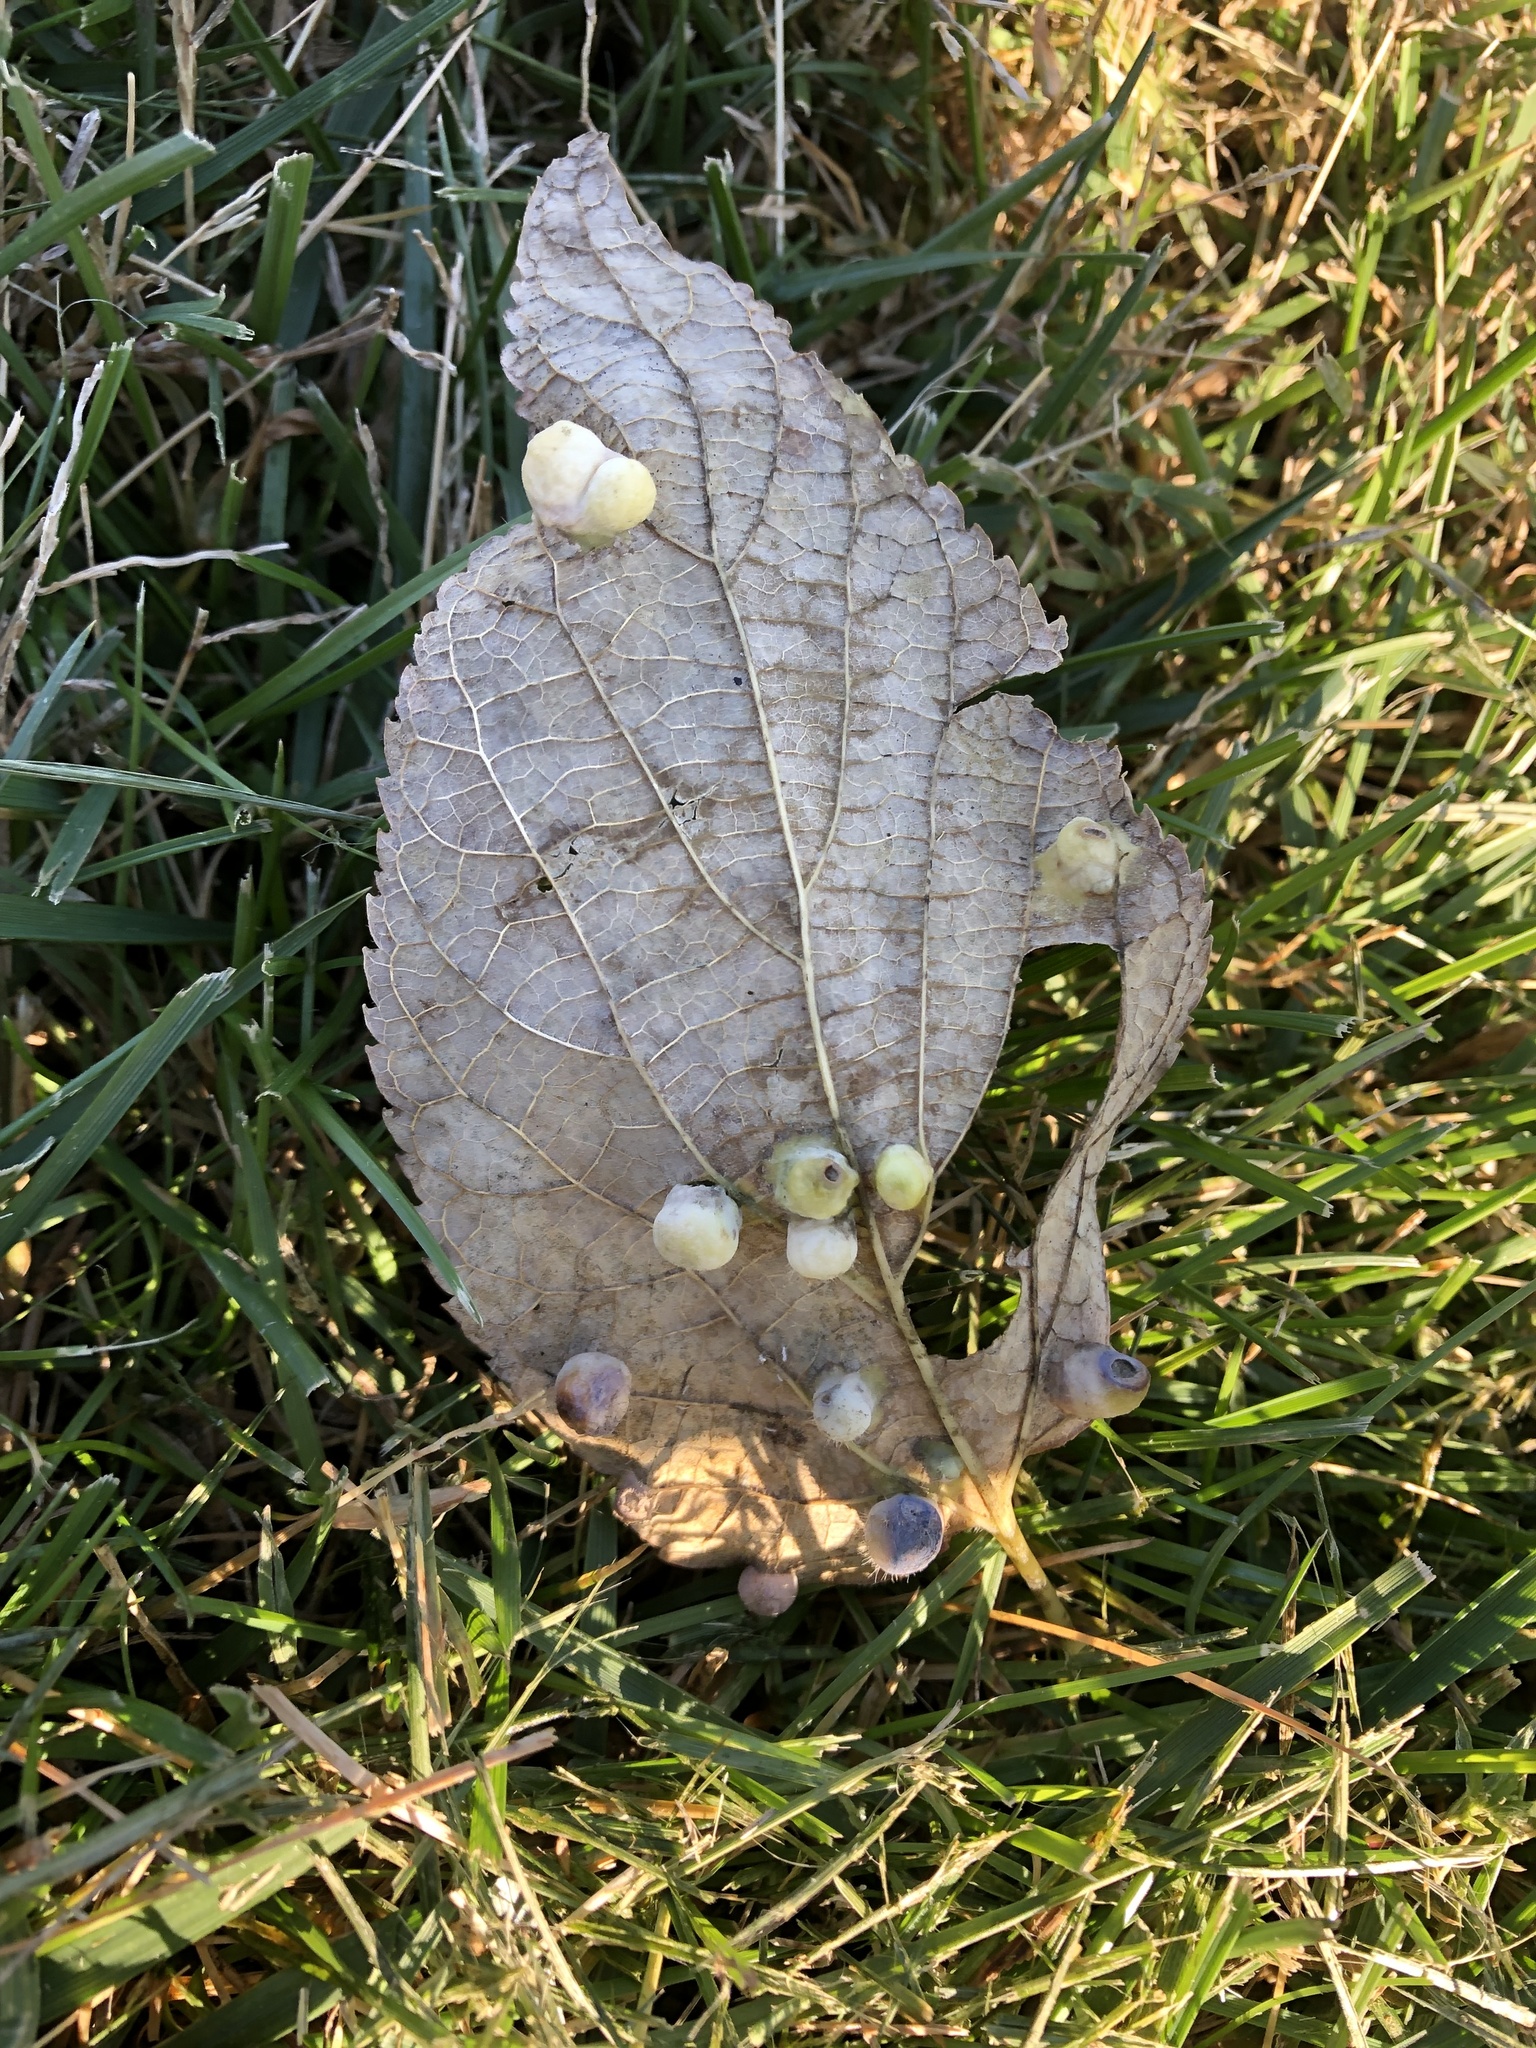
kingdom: Animalia
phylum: Arthropoda
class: Insecta
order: Hemiptera
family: Aphalaridae
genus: Pachypsylla
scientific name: Pachypsylla celtidismamma
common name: Hackberry nipplegall psyllid
